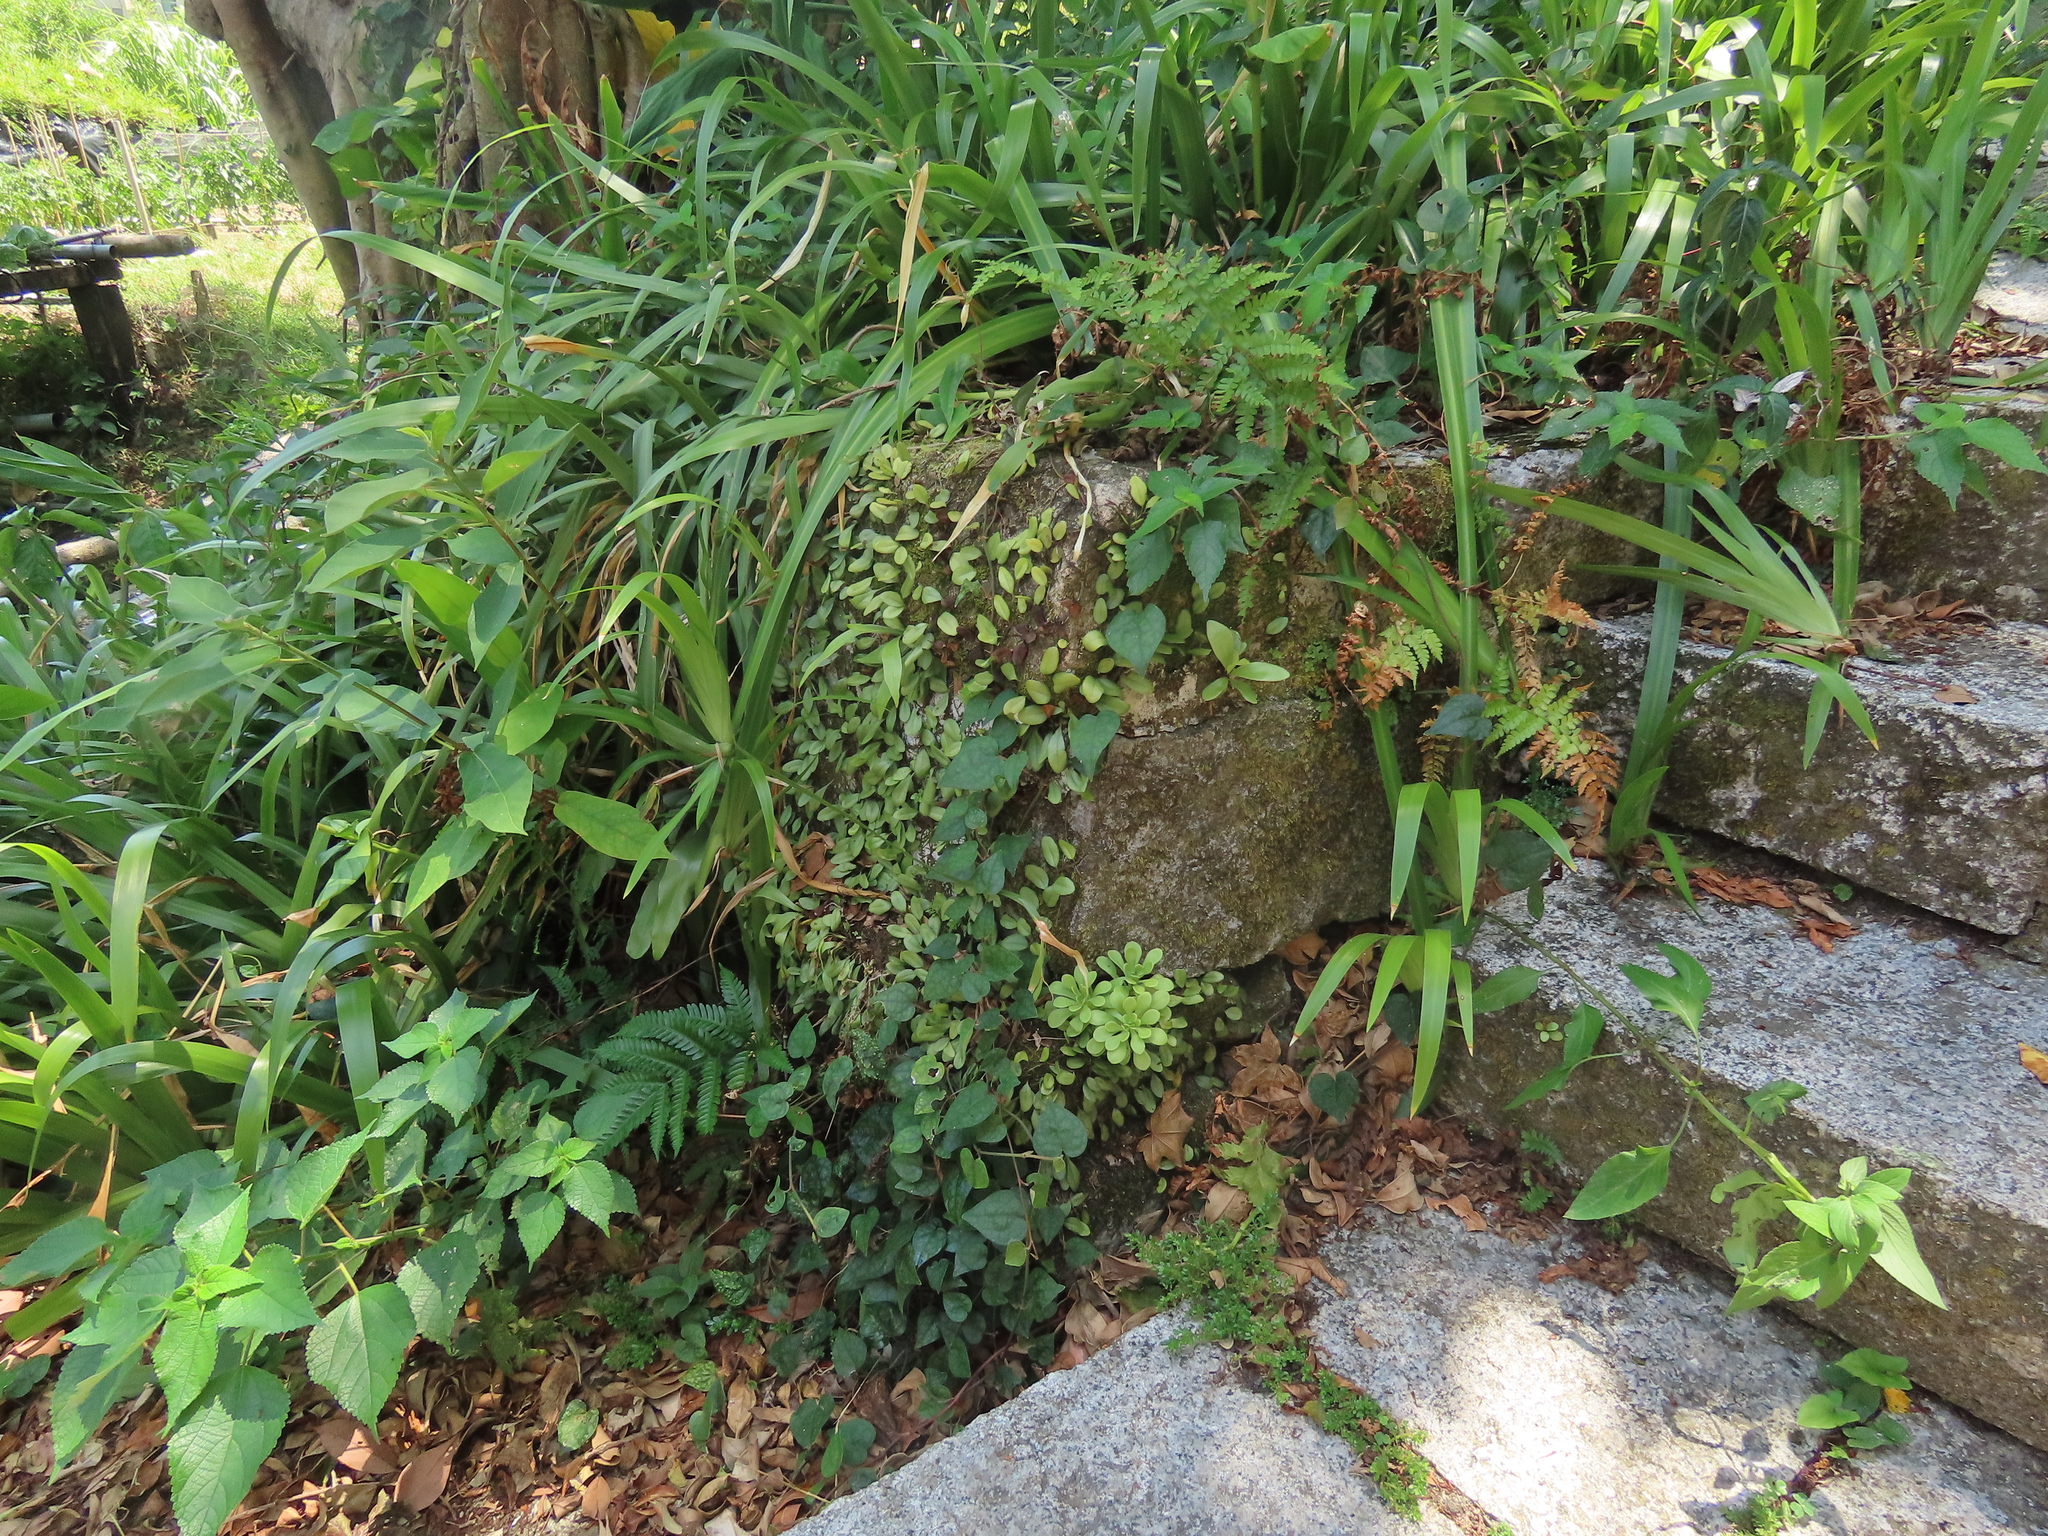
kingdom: Plantae
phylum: Tracheophyta
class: Magnoliopsida
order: Saxifragales
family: Crassulaceae
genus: Sedum
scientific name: Sedum formosanum
